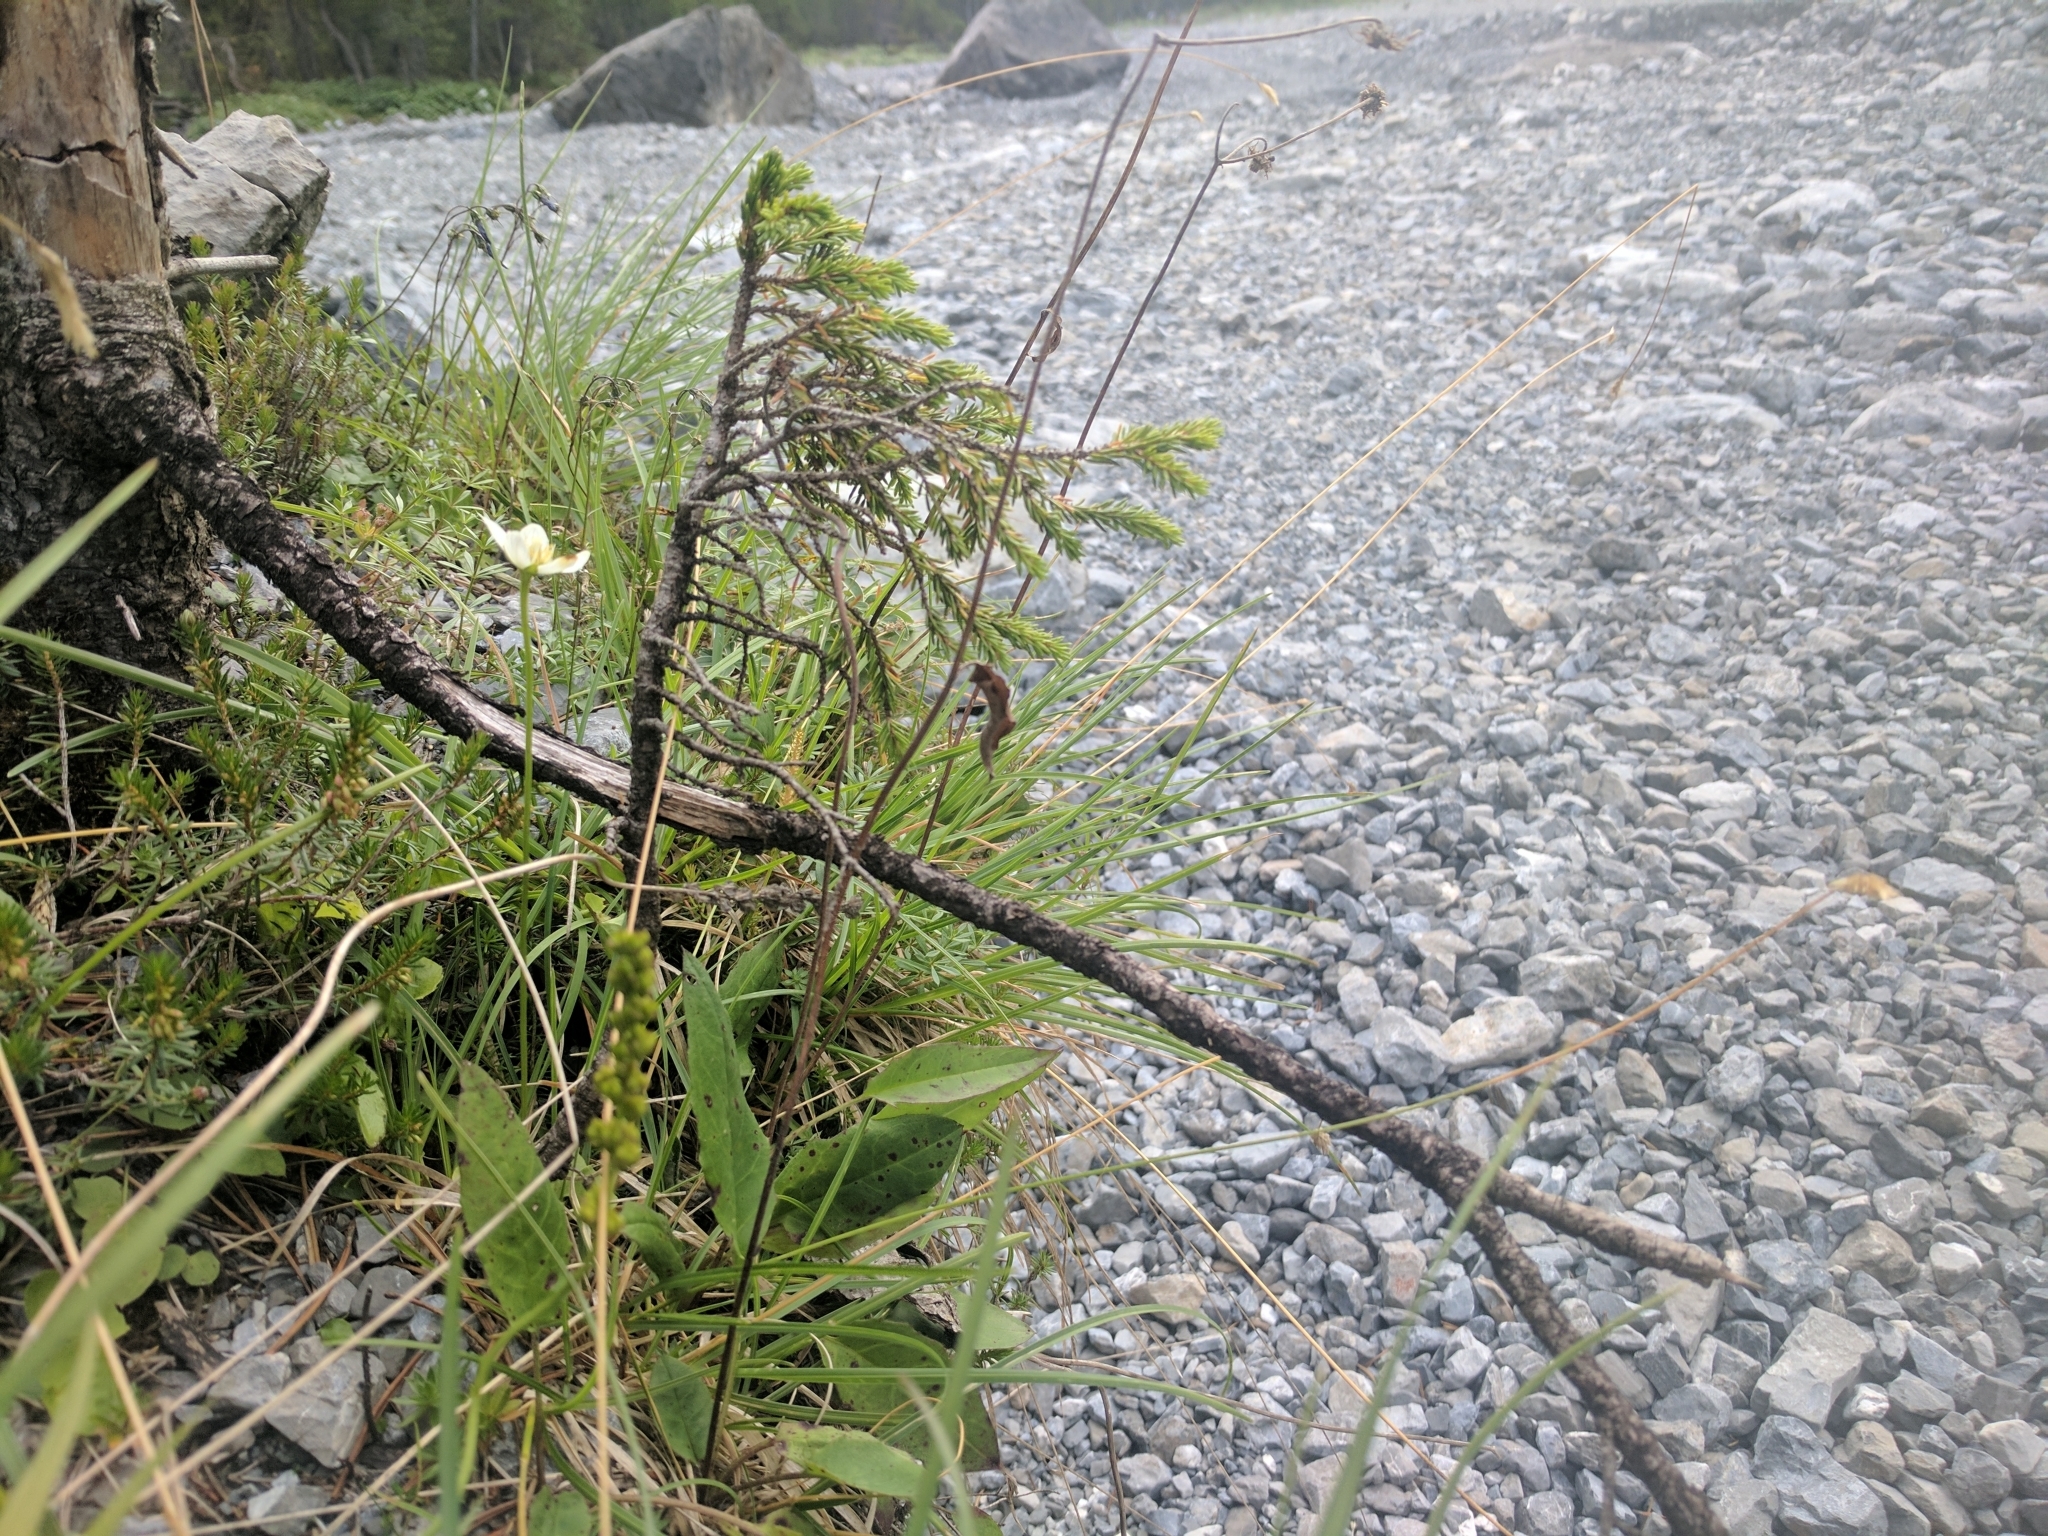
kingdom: Plantae
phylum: Tracheophyta
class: Magnoliopsida
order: Celastrales
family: Parnassiaceae
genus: Parnassia
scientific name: Parnassia palustris
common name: Grass-of-parnassus
